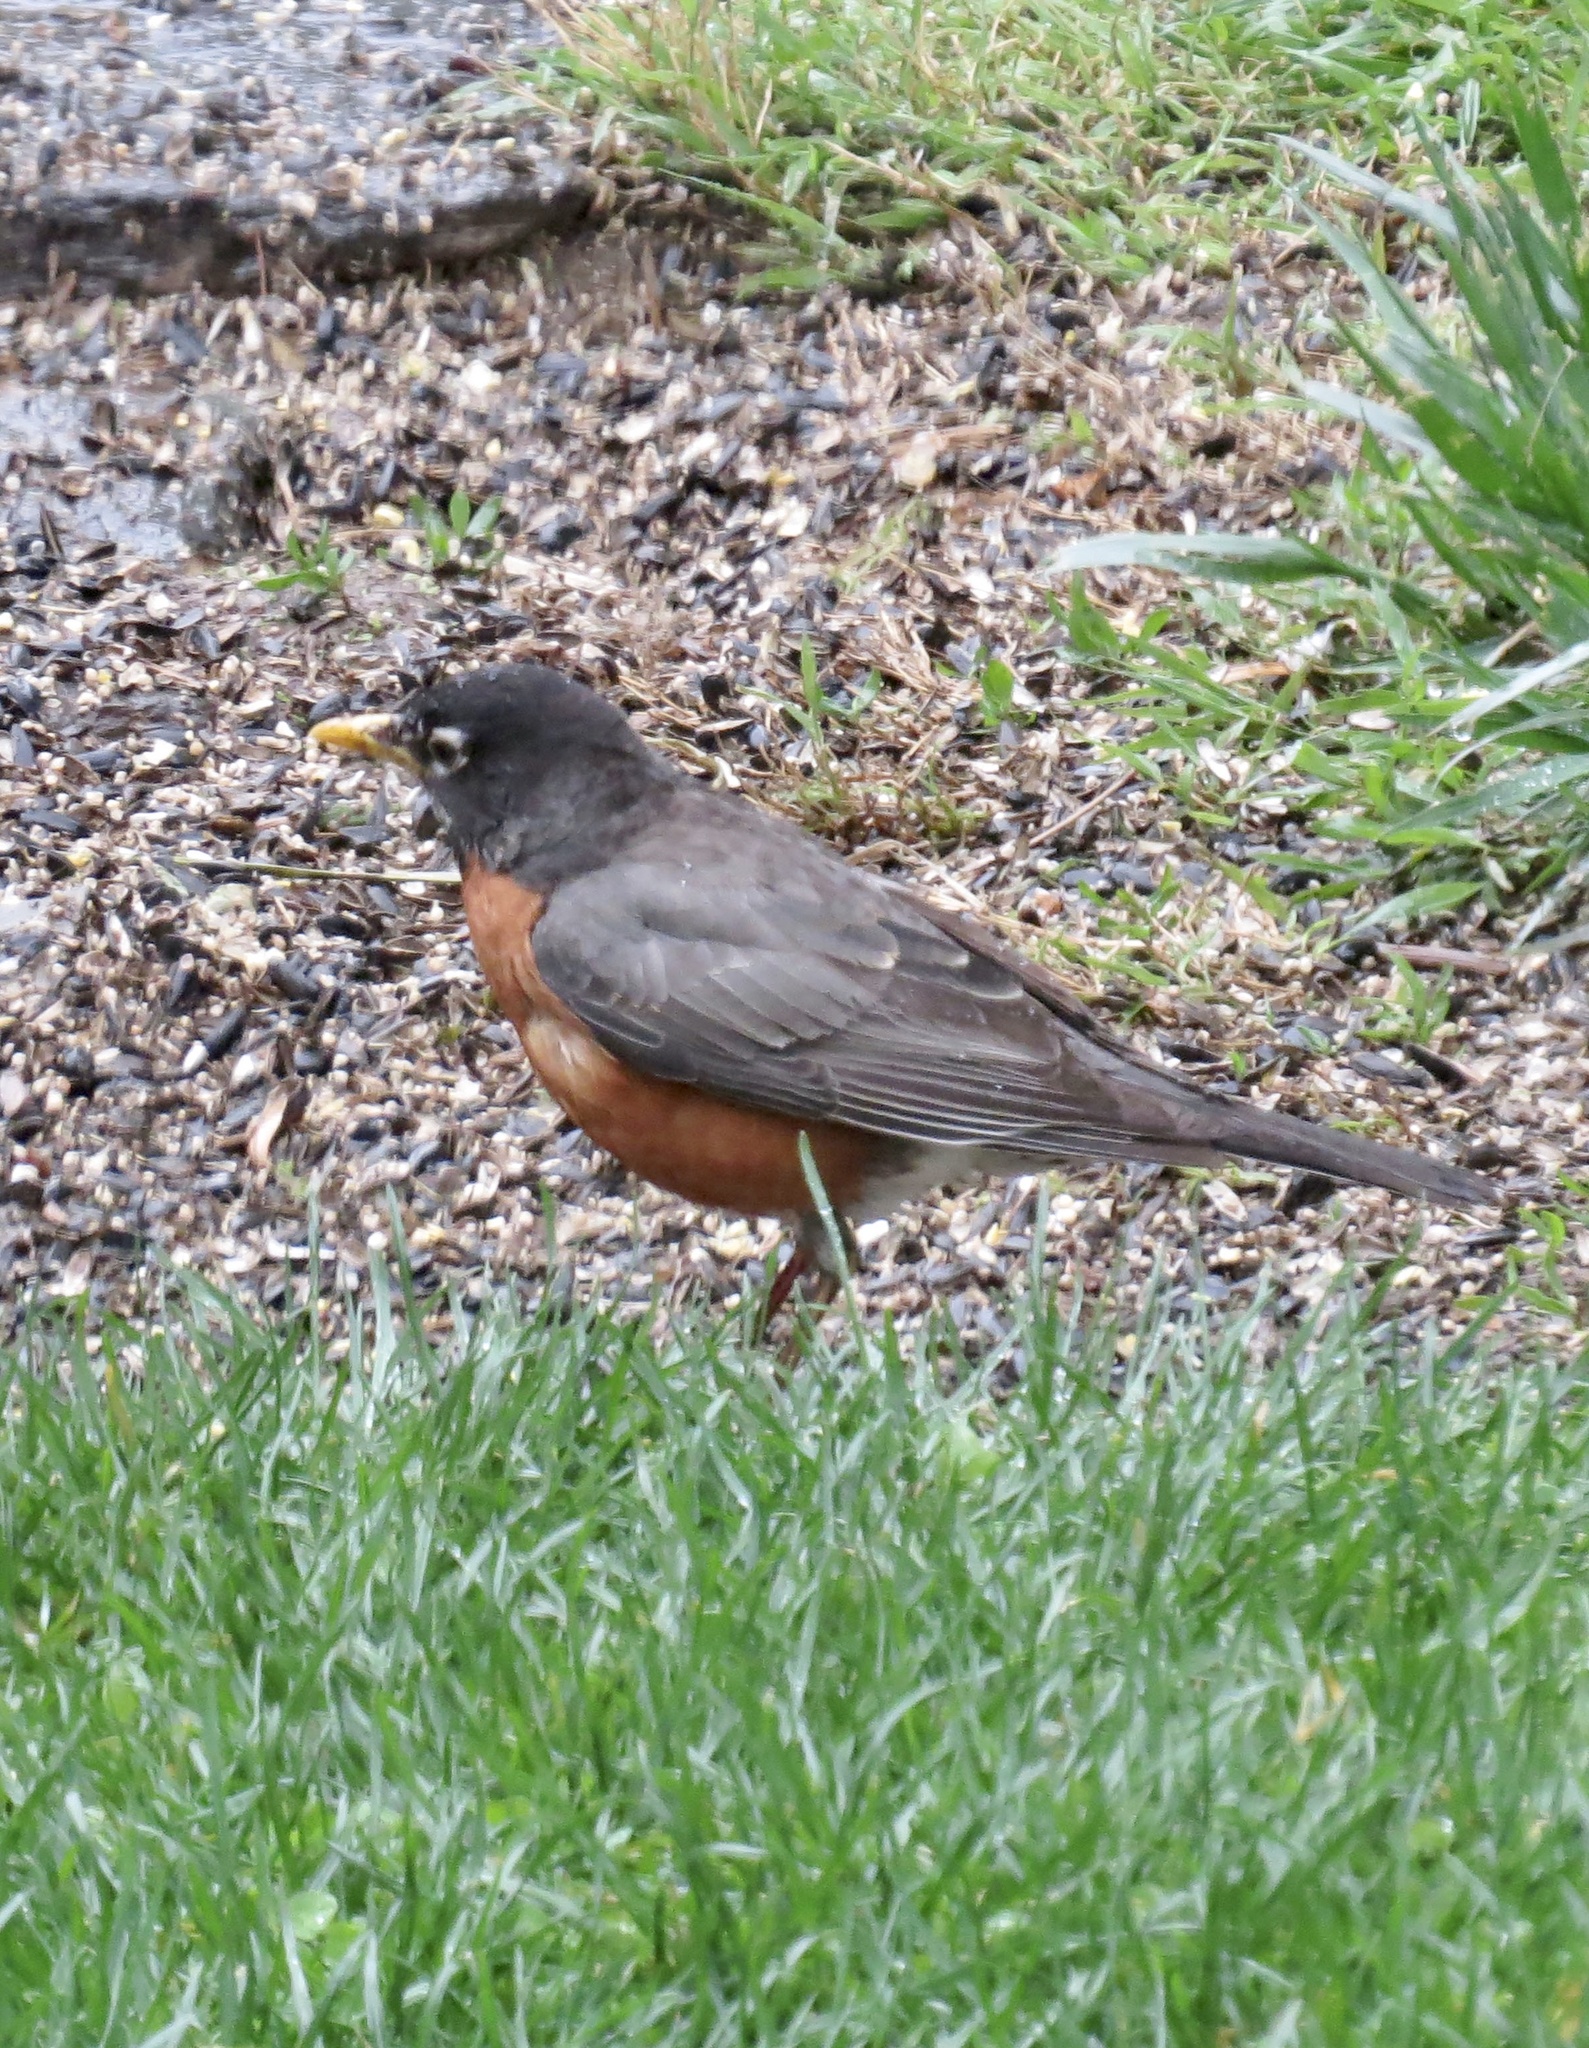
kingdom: Animalia
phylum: Chordata
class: Aves
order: Passeriformes
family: Turdidae
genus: Turdus
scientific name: Turdus migratorius
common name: American robin
